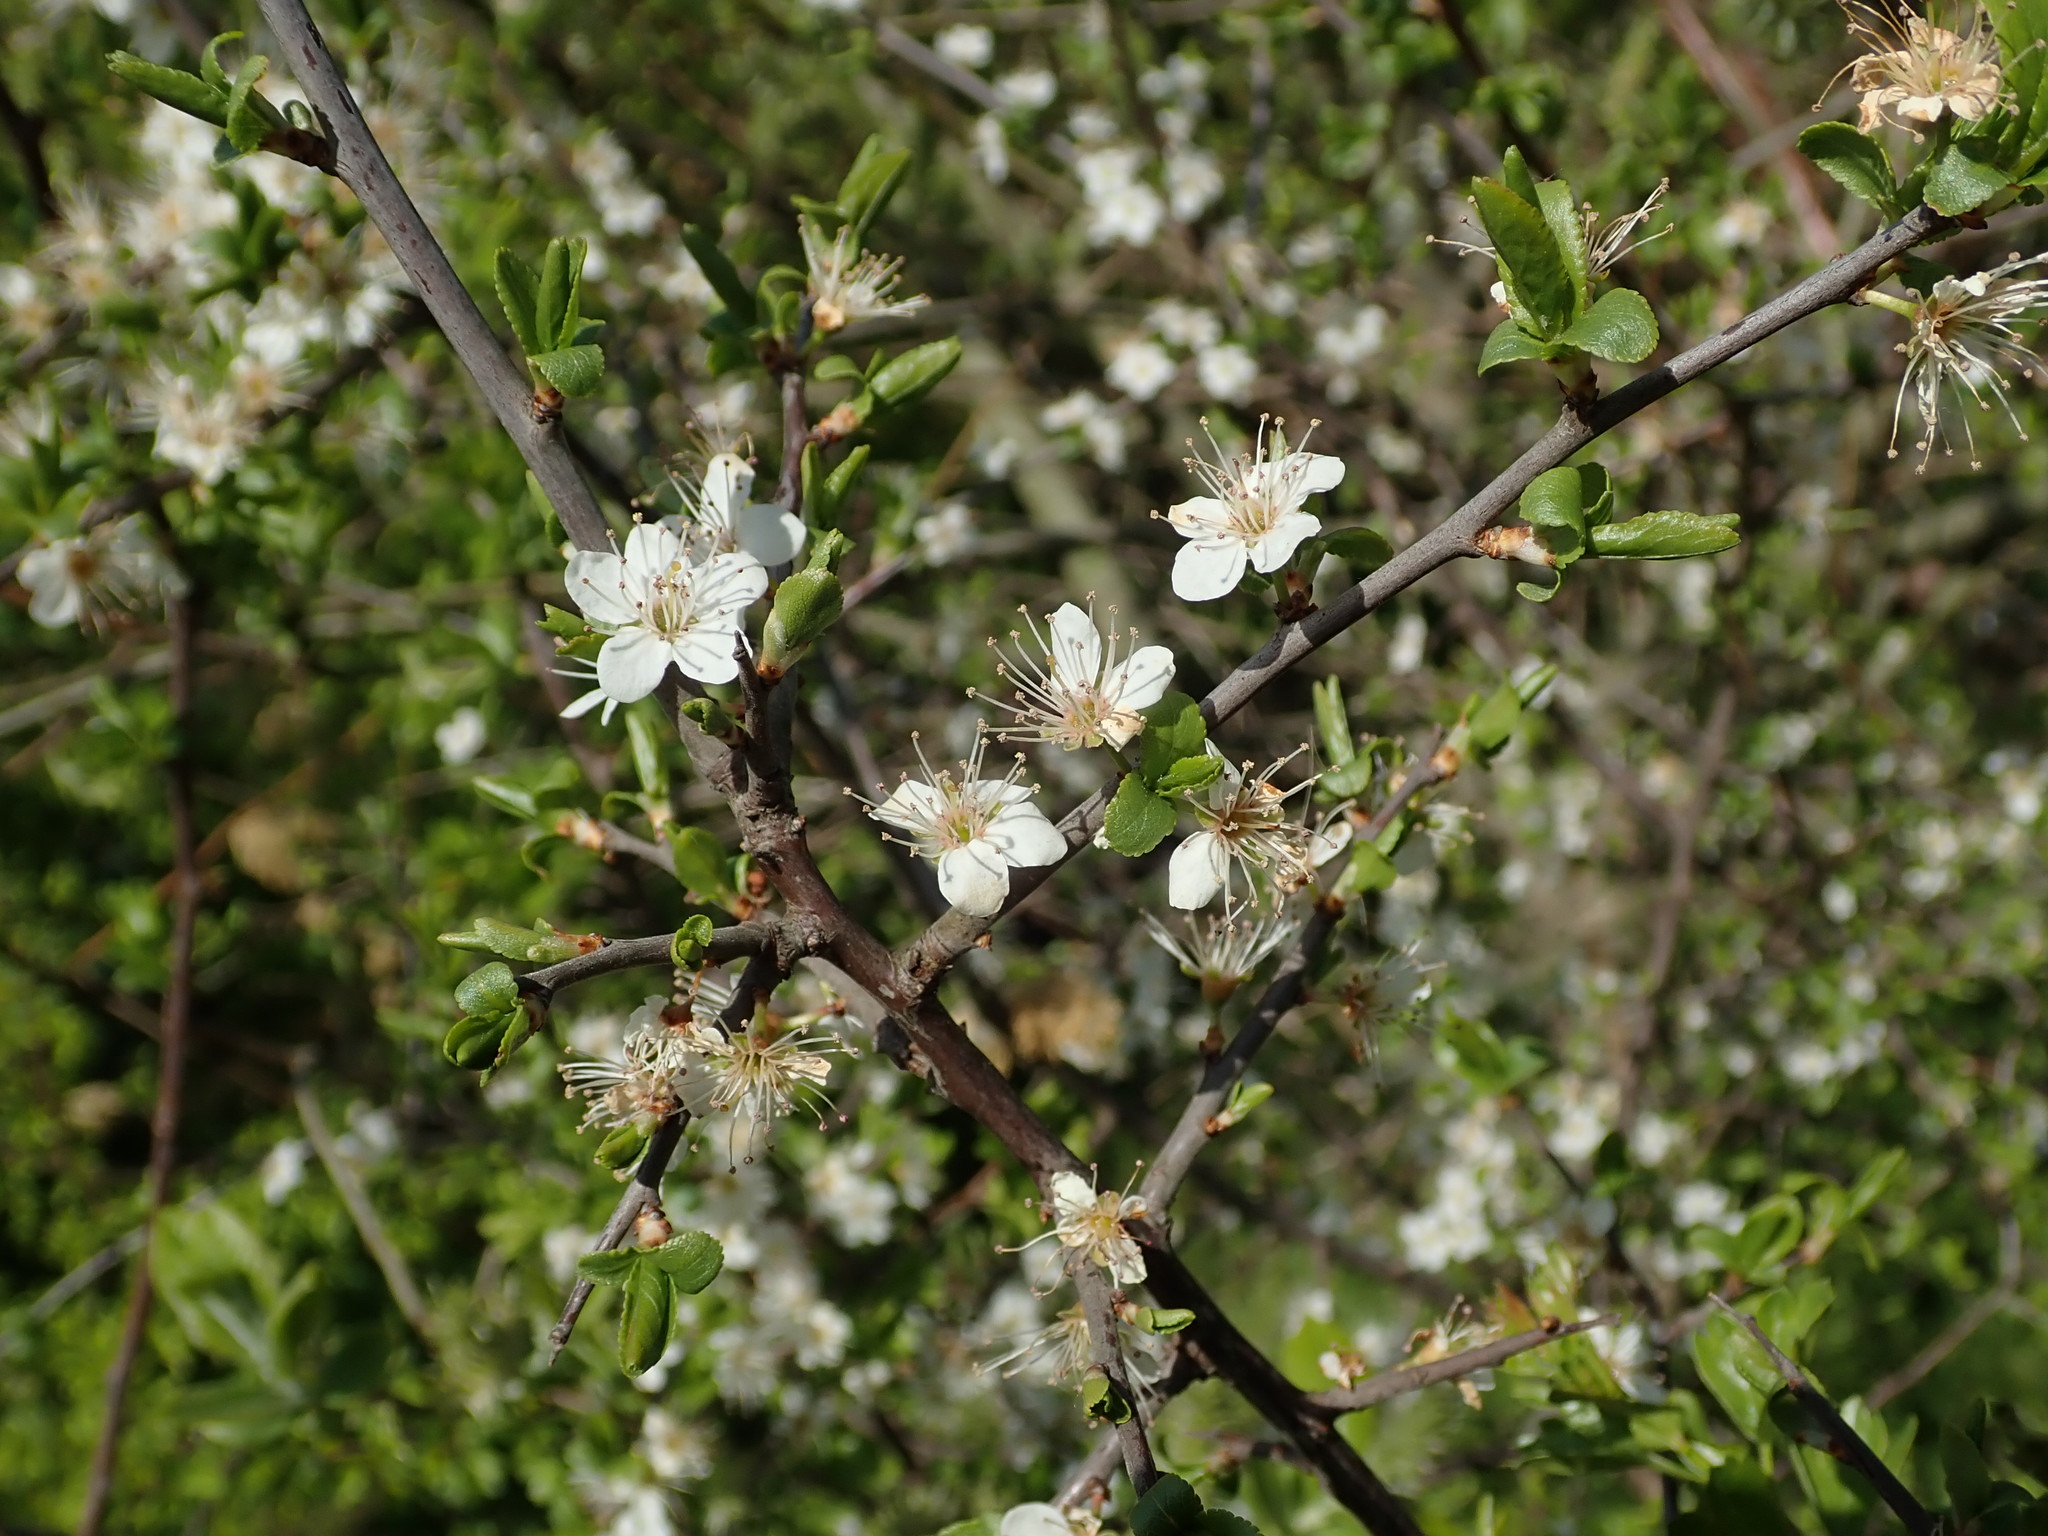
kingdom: Plantae
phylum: Tracheophyta
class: Magnoliopsida
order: Rosales
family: Rosaceae
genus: Prunus
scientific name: Prunus spinosa
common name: Blackthorn
